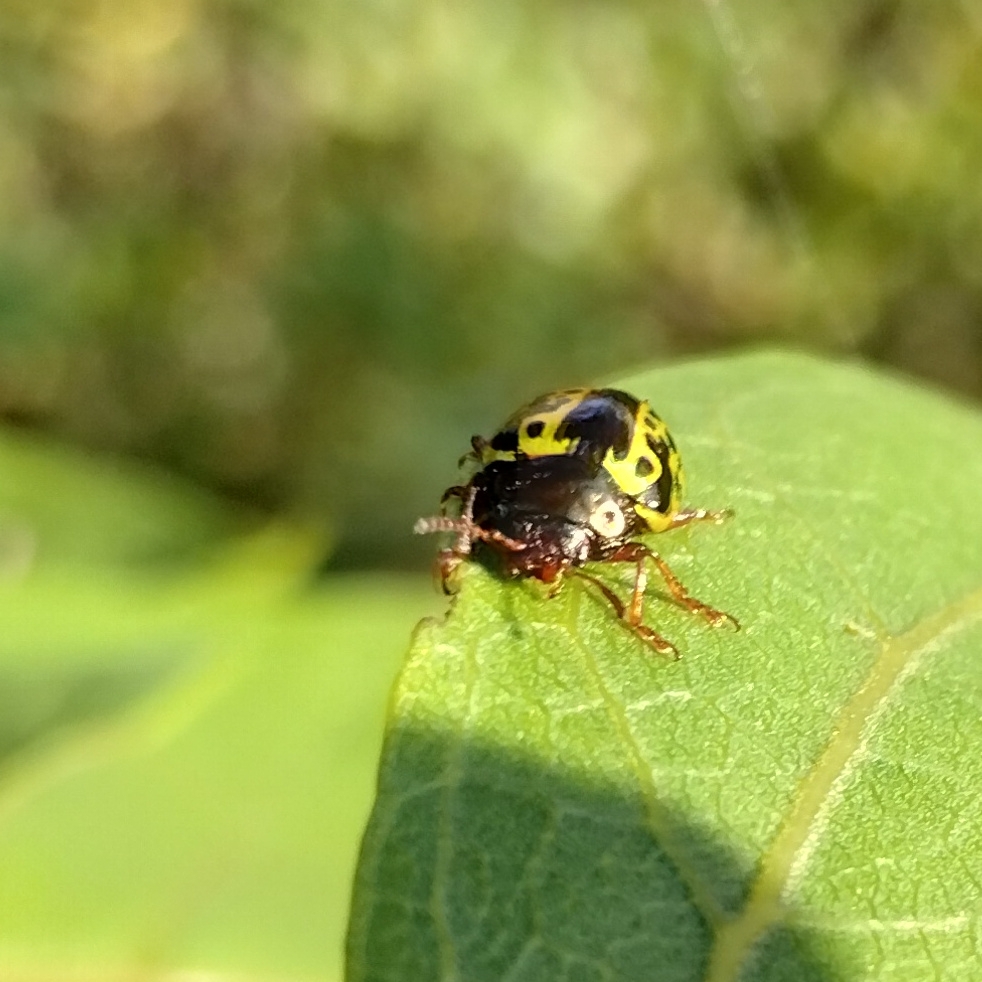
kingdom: Animalia
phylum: Arthropoda
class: Insecta
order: Coleoptera
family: Chrysomelidae
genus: Calligrapha
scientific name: Calligrapha pantherina
